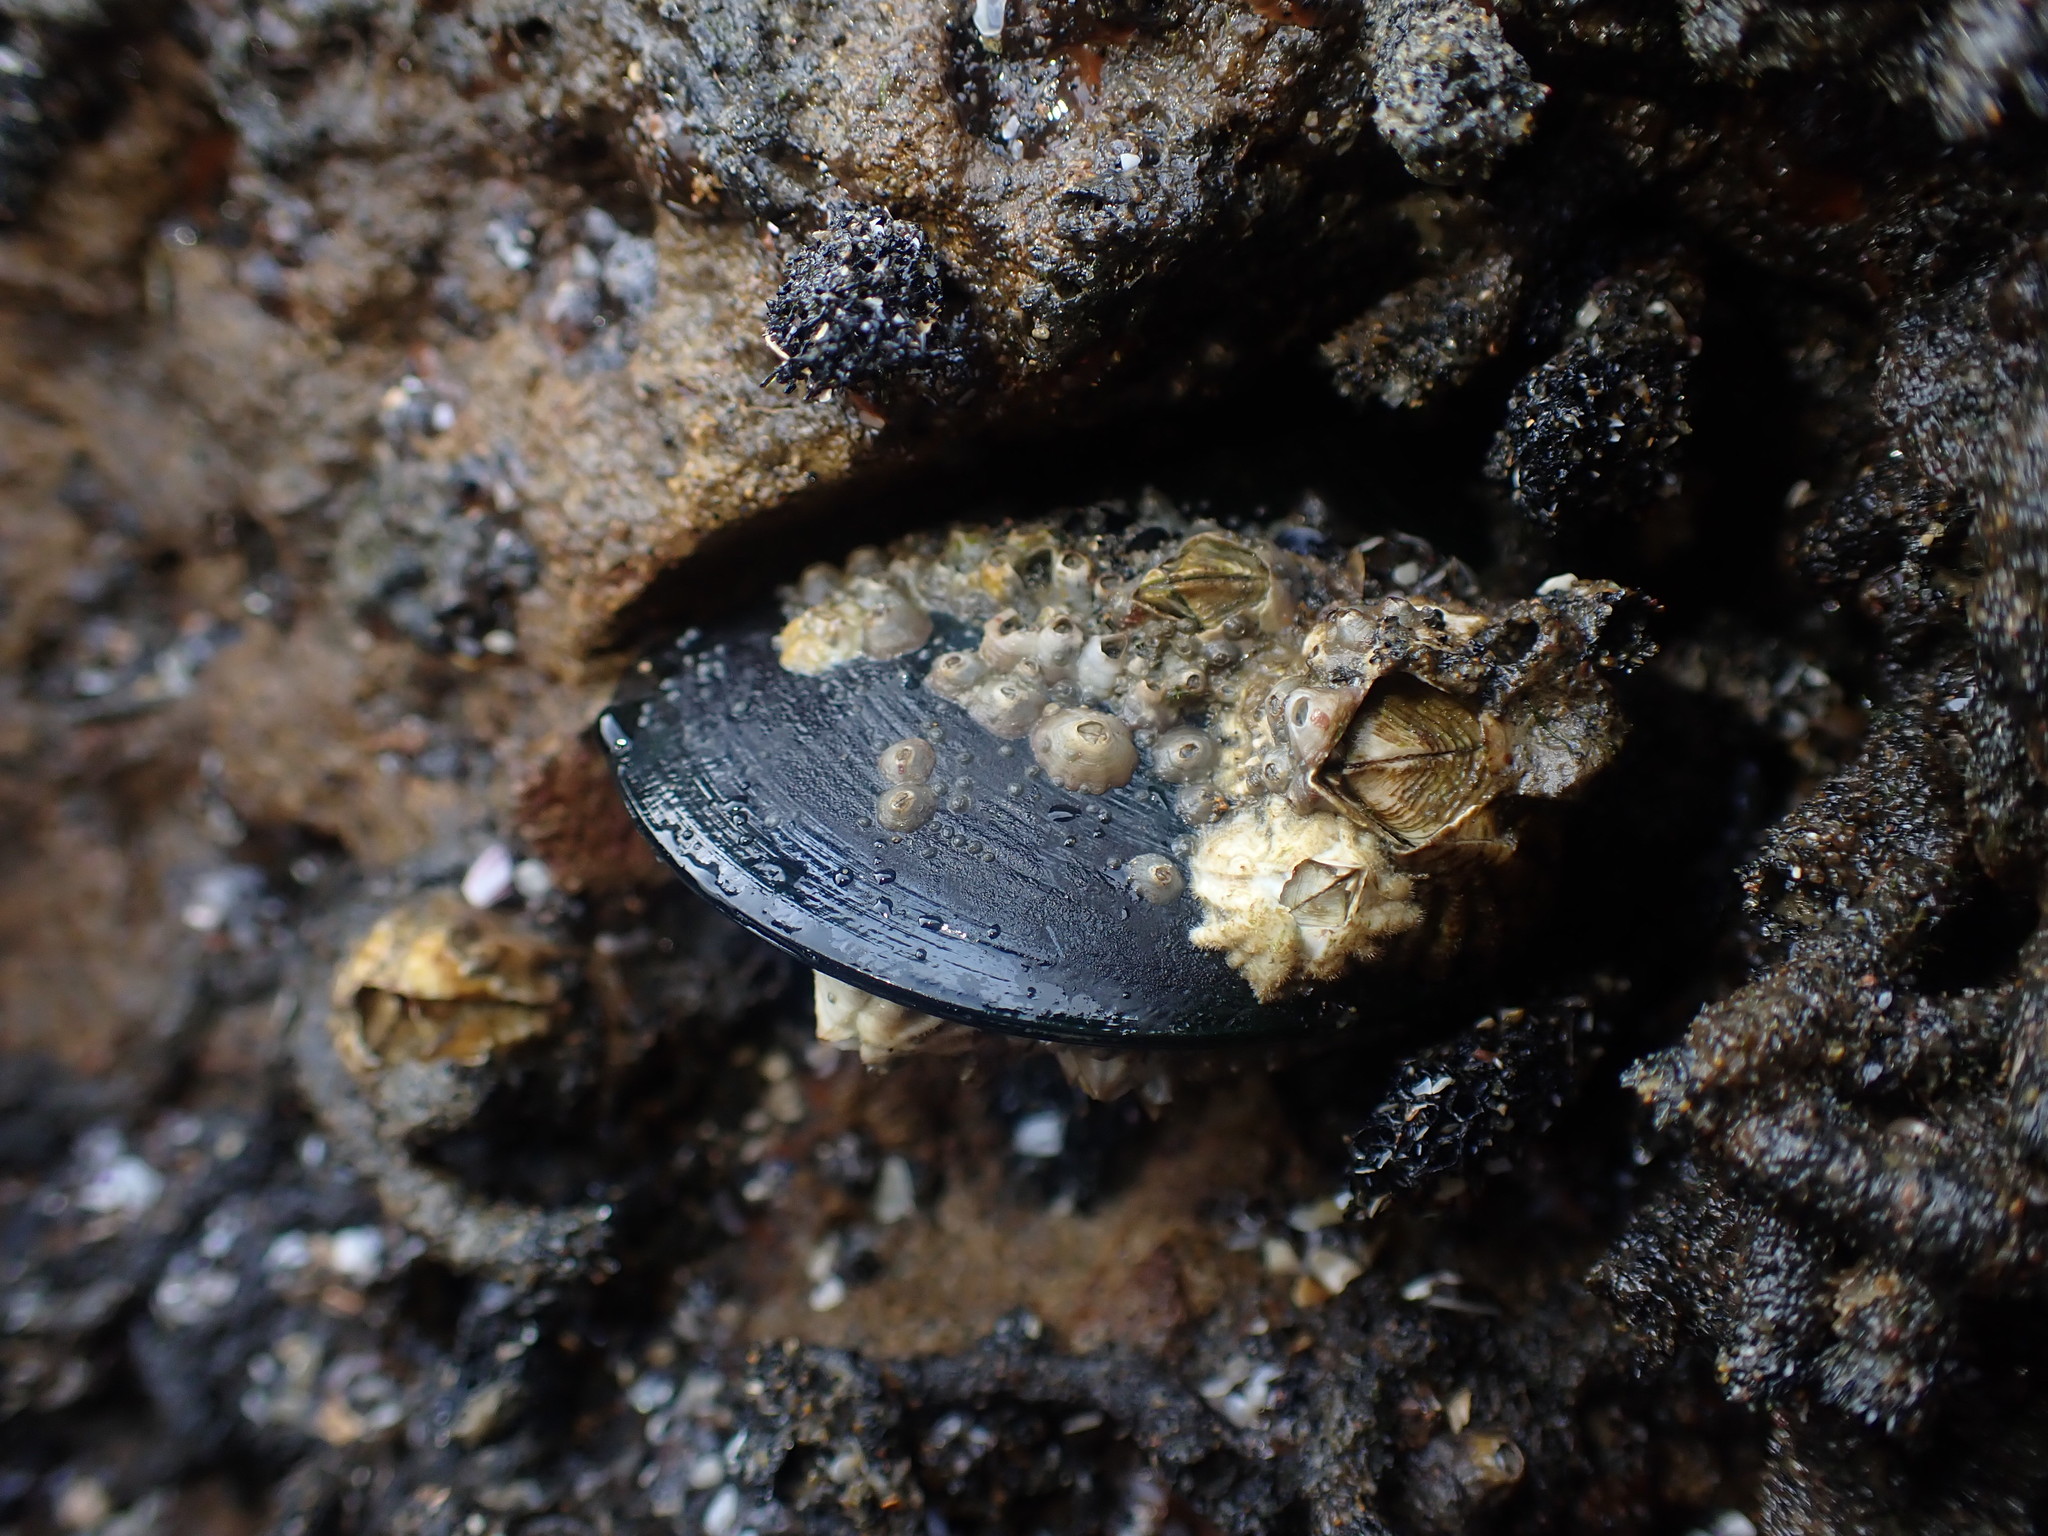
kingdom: Animalia
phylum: Mollusca
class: Bivalvia
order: Mytilida
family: Mytilidae
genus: Perna
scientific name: Perna canaliculus
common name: New zealand greenshelltm
